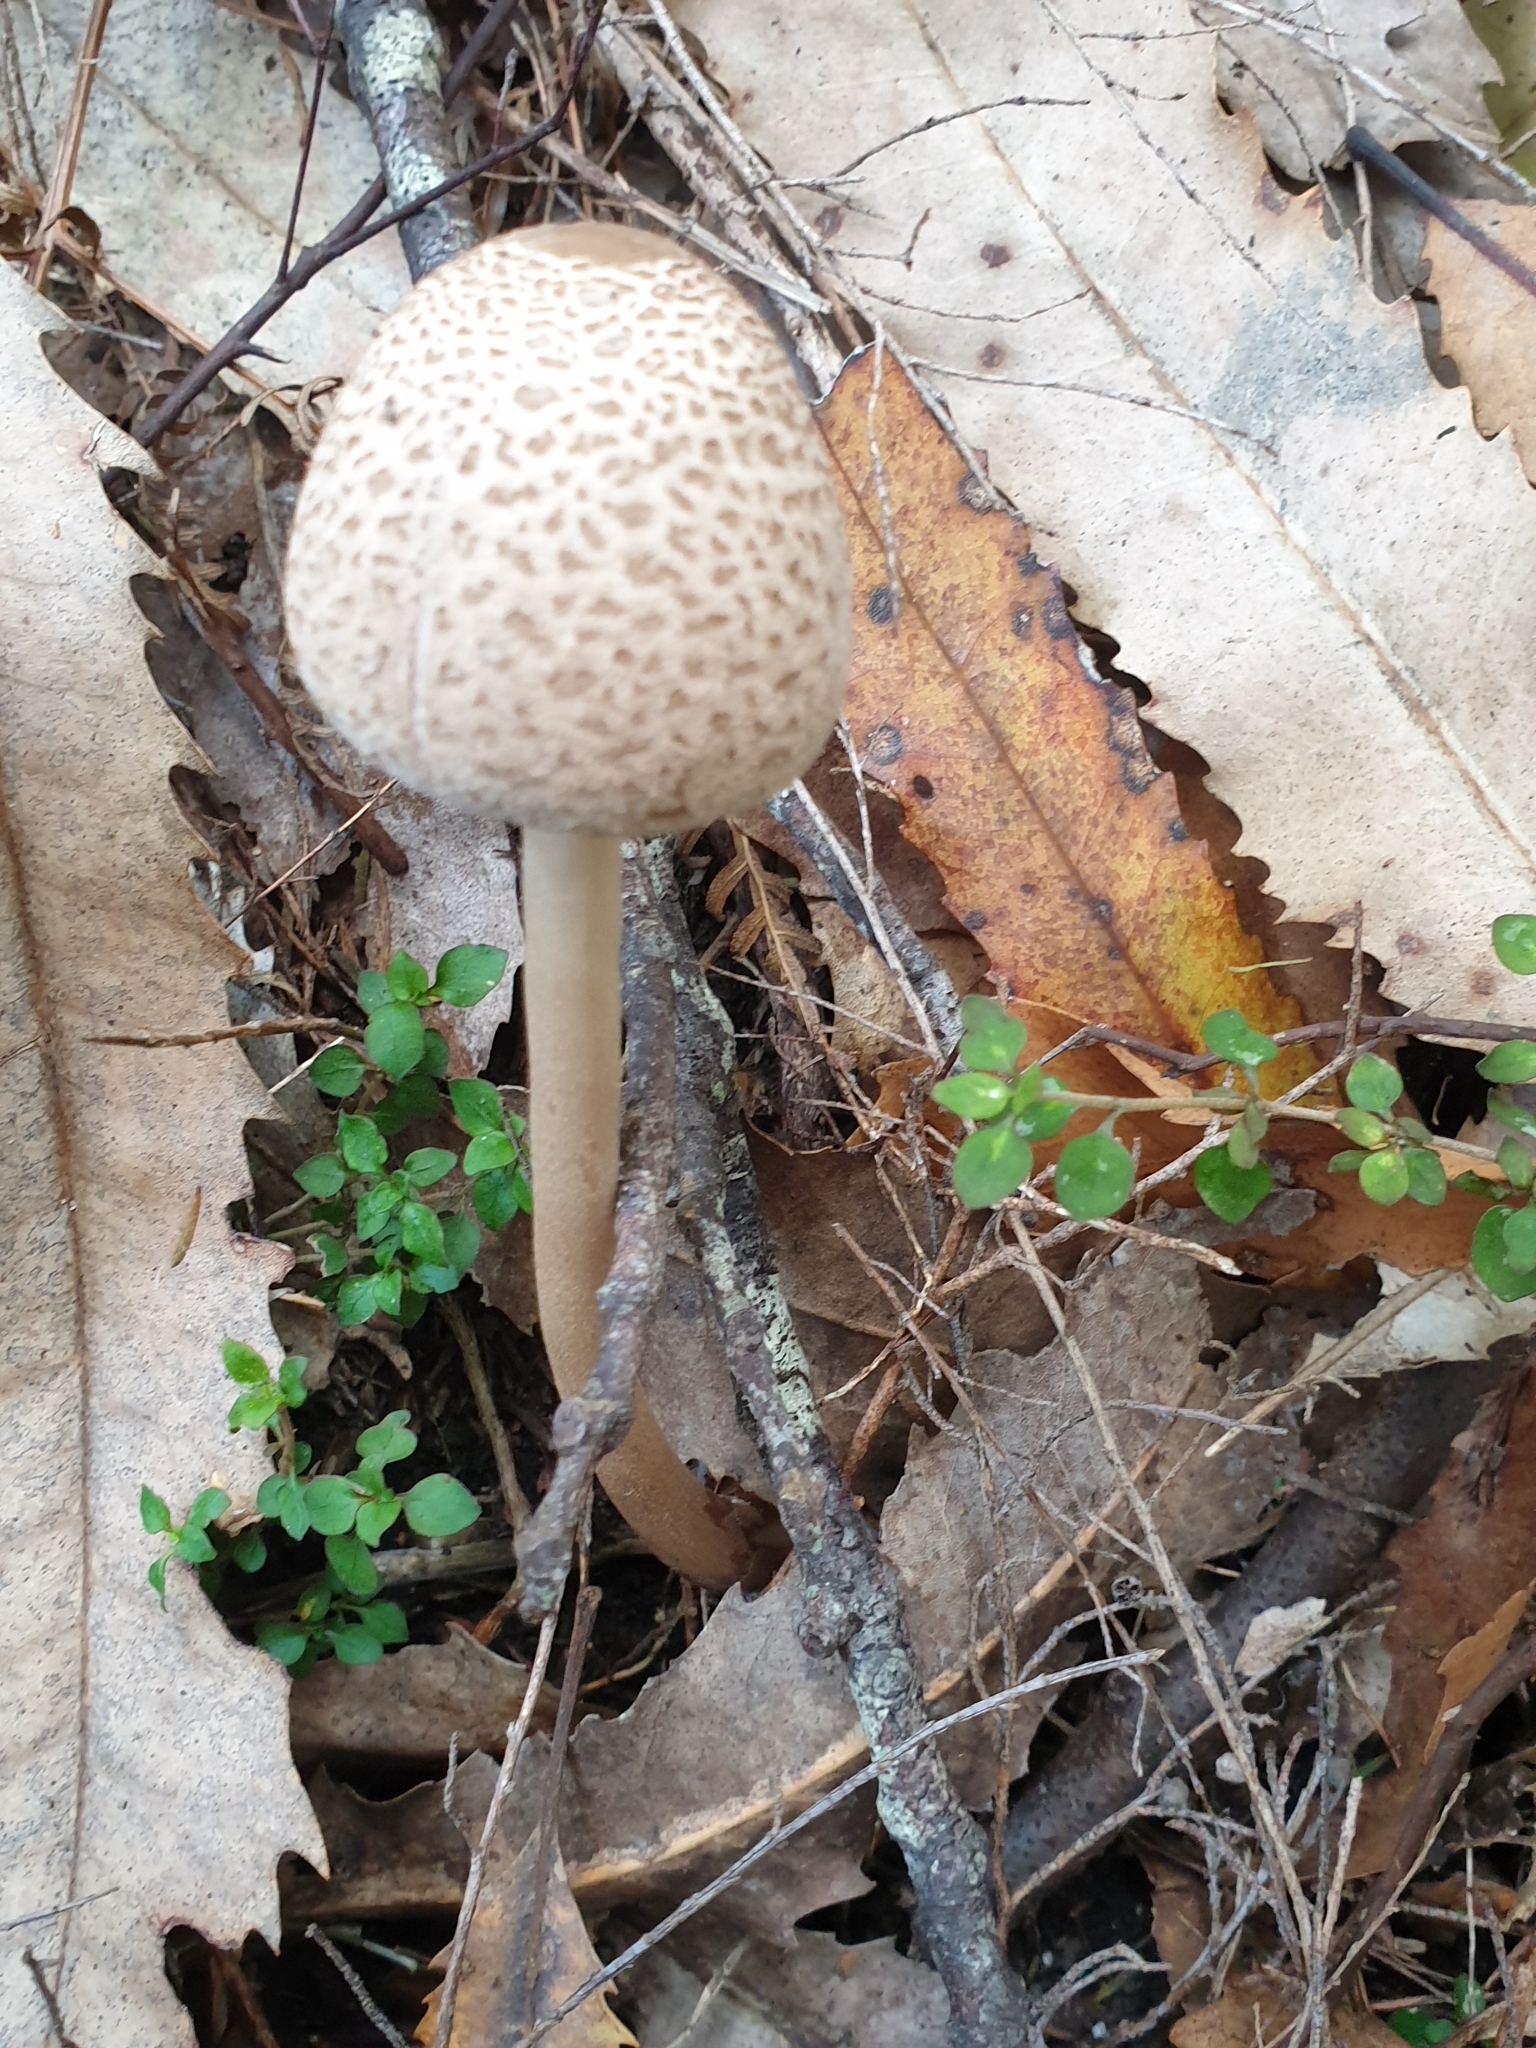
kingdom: Fungi
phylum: Basidiomycota
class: Agaricomycetes
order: Agaricales
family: Agaricaceae
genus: Macrolepiota
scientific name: Macrolepiota clelandii
